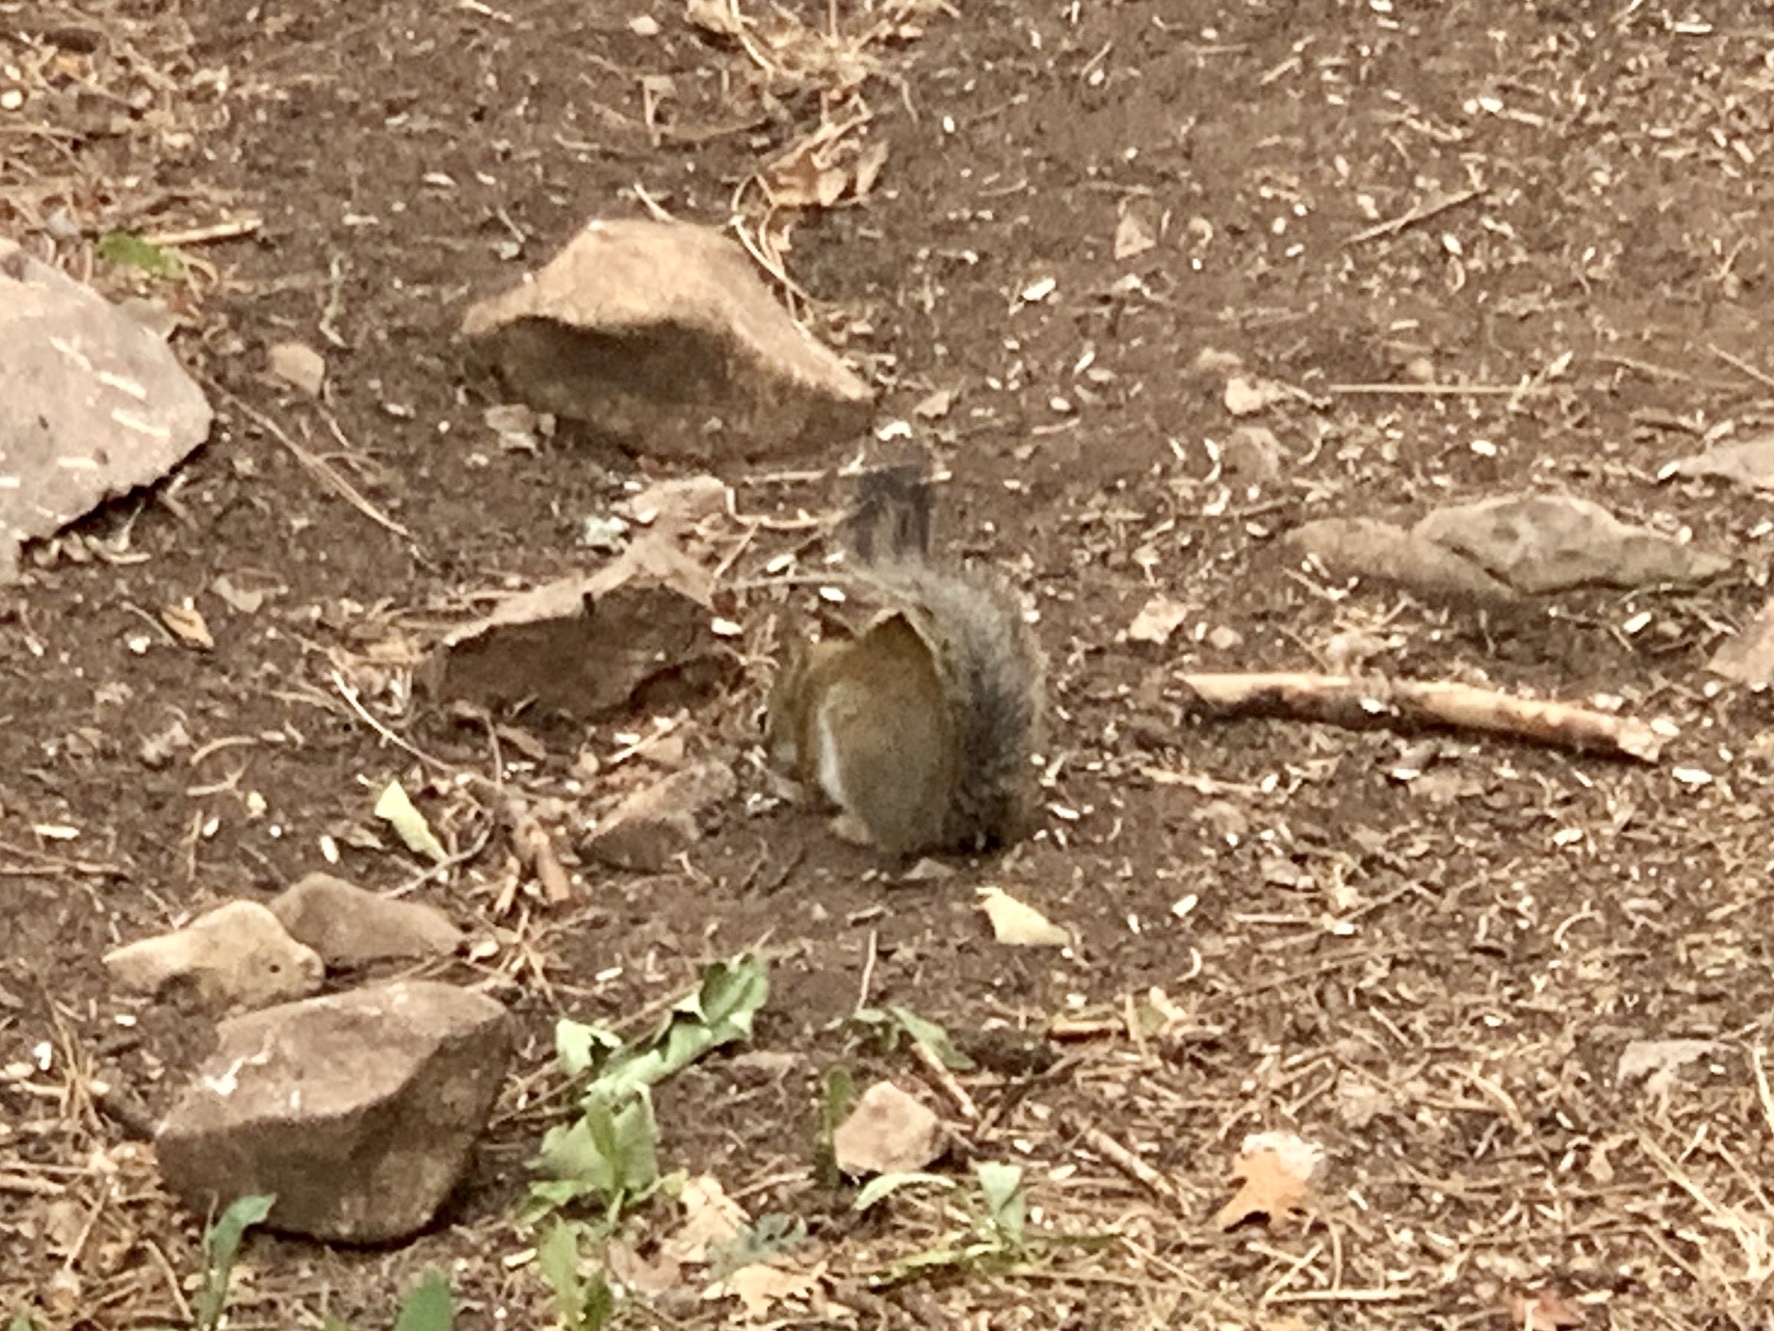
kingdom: Animalia
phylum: Chordata
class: Mammalia
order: Rodentia
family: Sciuridae
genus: Tamiasciurus
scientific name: Tamiasciurus hudsonicus
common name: Red squirrel
